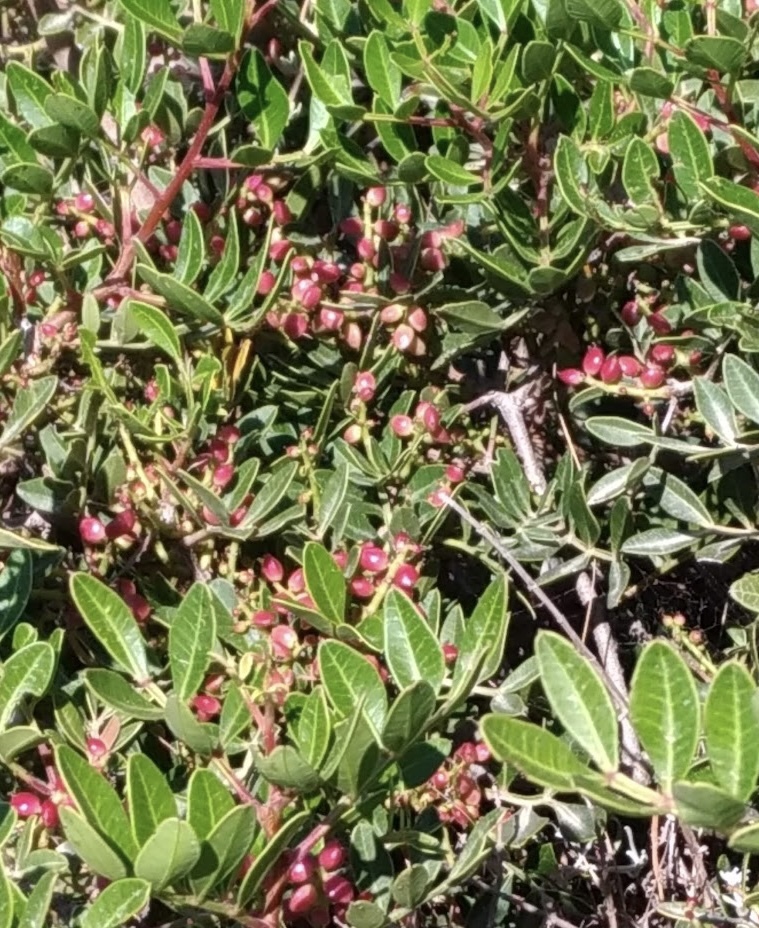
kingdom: Plantae
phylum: Tracheophyta
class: Magnoliopsida
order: Sapindales
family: Anacardiaceae
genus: Pistacia
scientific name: Pistacia lentiscus
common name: Lentisk
